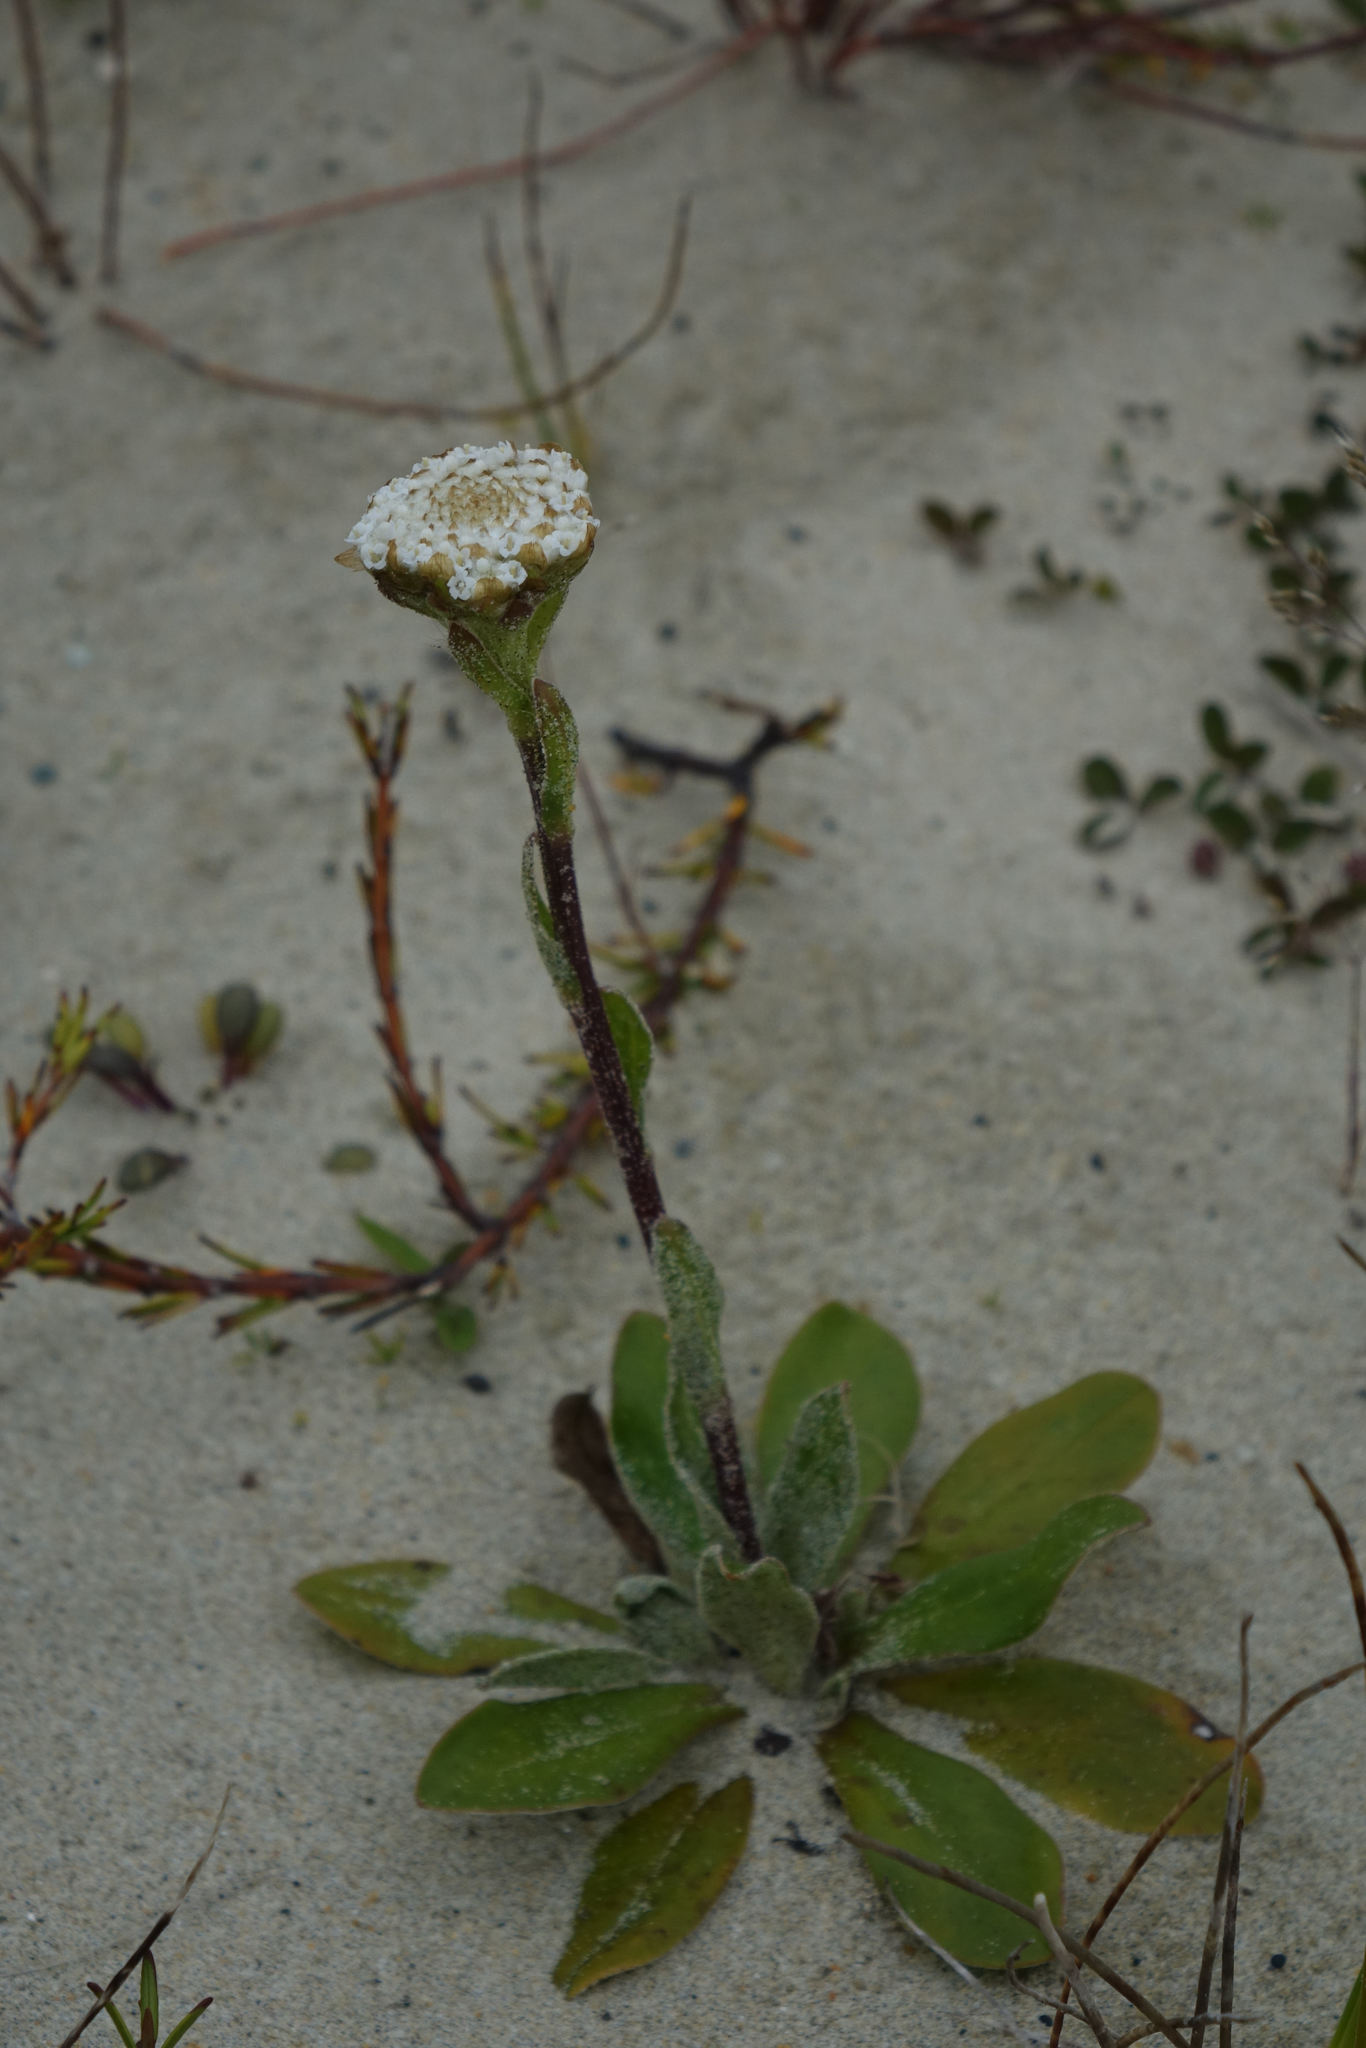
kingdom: Plantae
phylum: Tracheophyta
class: Magnoliopsida
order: Asterales
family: Asteraceae
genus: Craspedia
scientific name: Craspedia robusta
